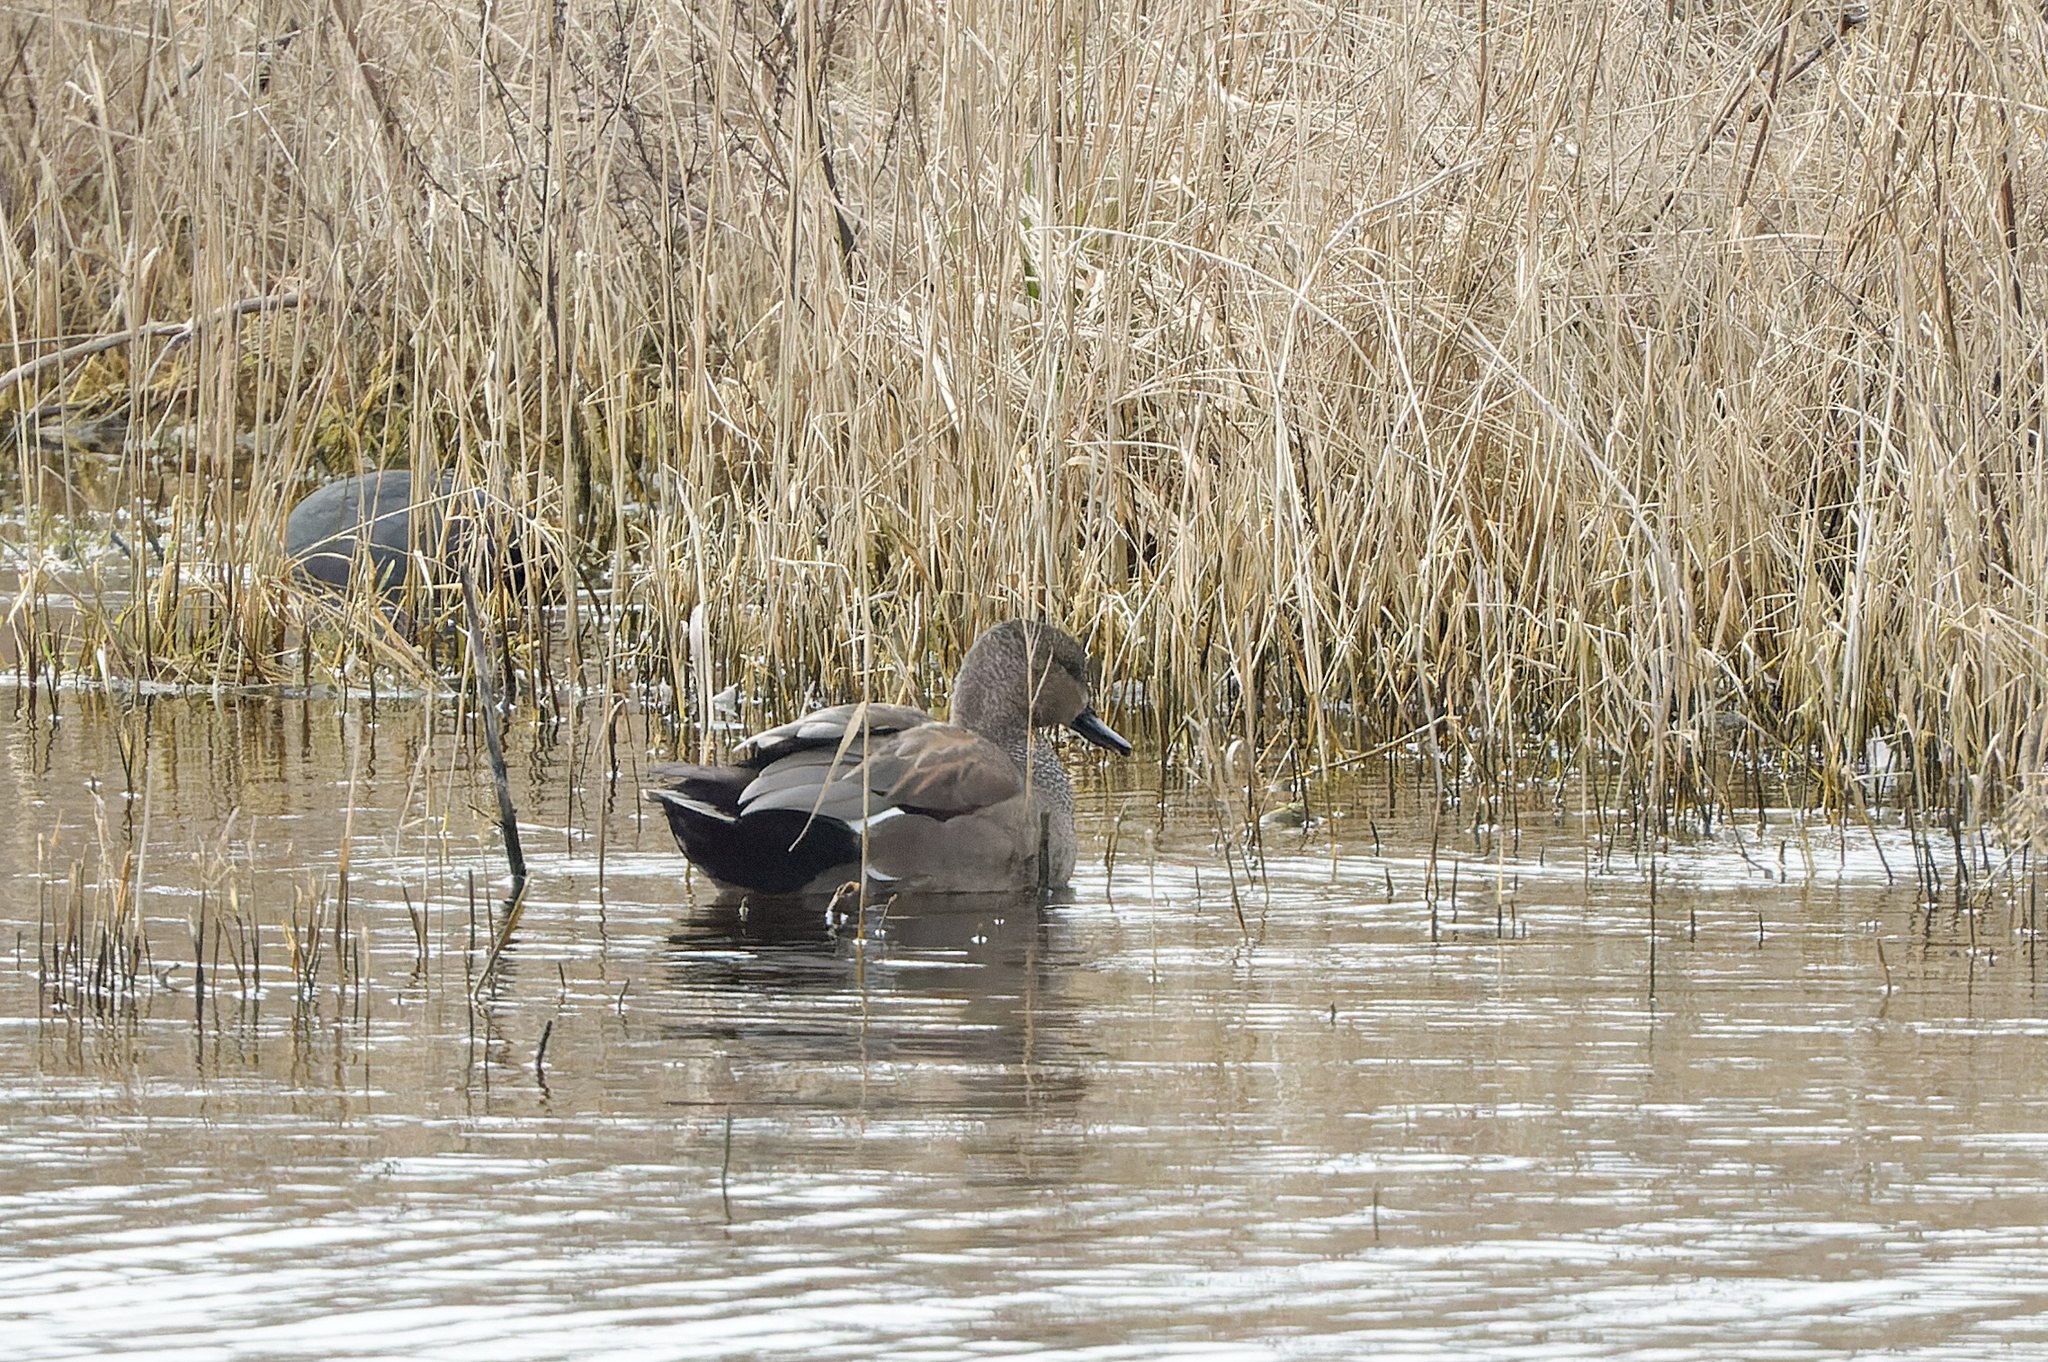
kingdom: Animalia
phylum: Chordata
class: Aves
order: Anseriformes
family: Anatidae
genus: Mareca
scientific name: Mareca strepera
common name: Gadwall
